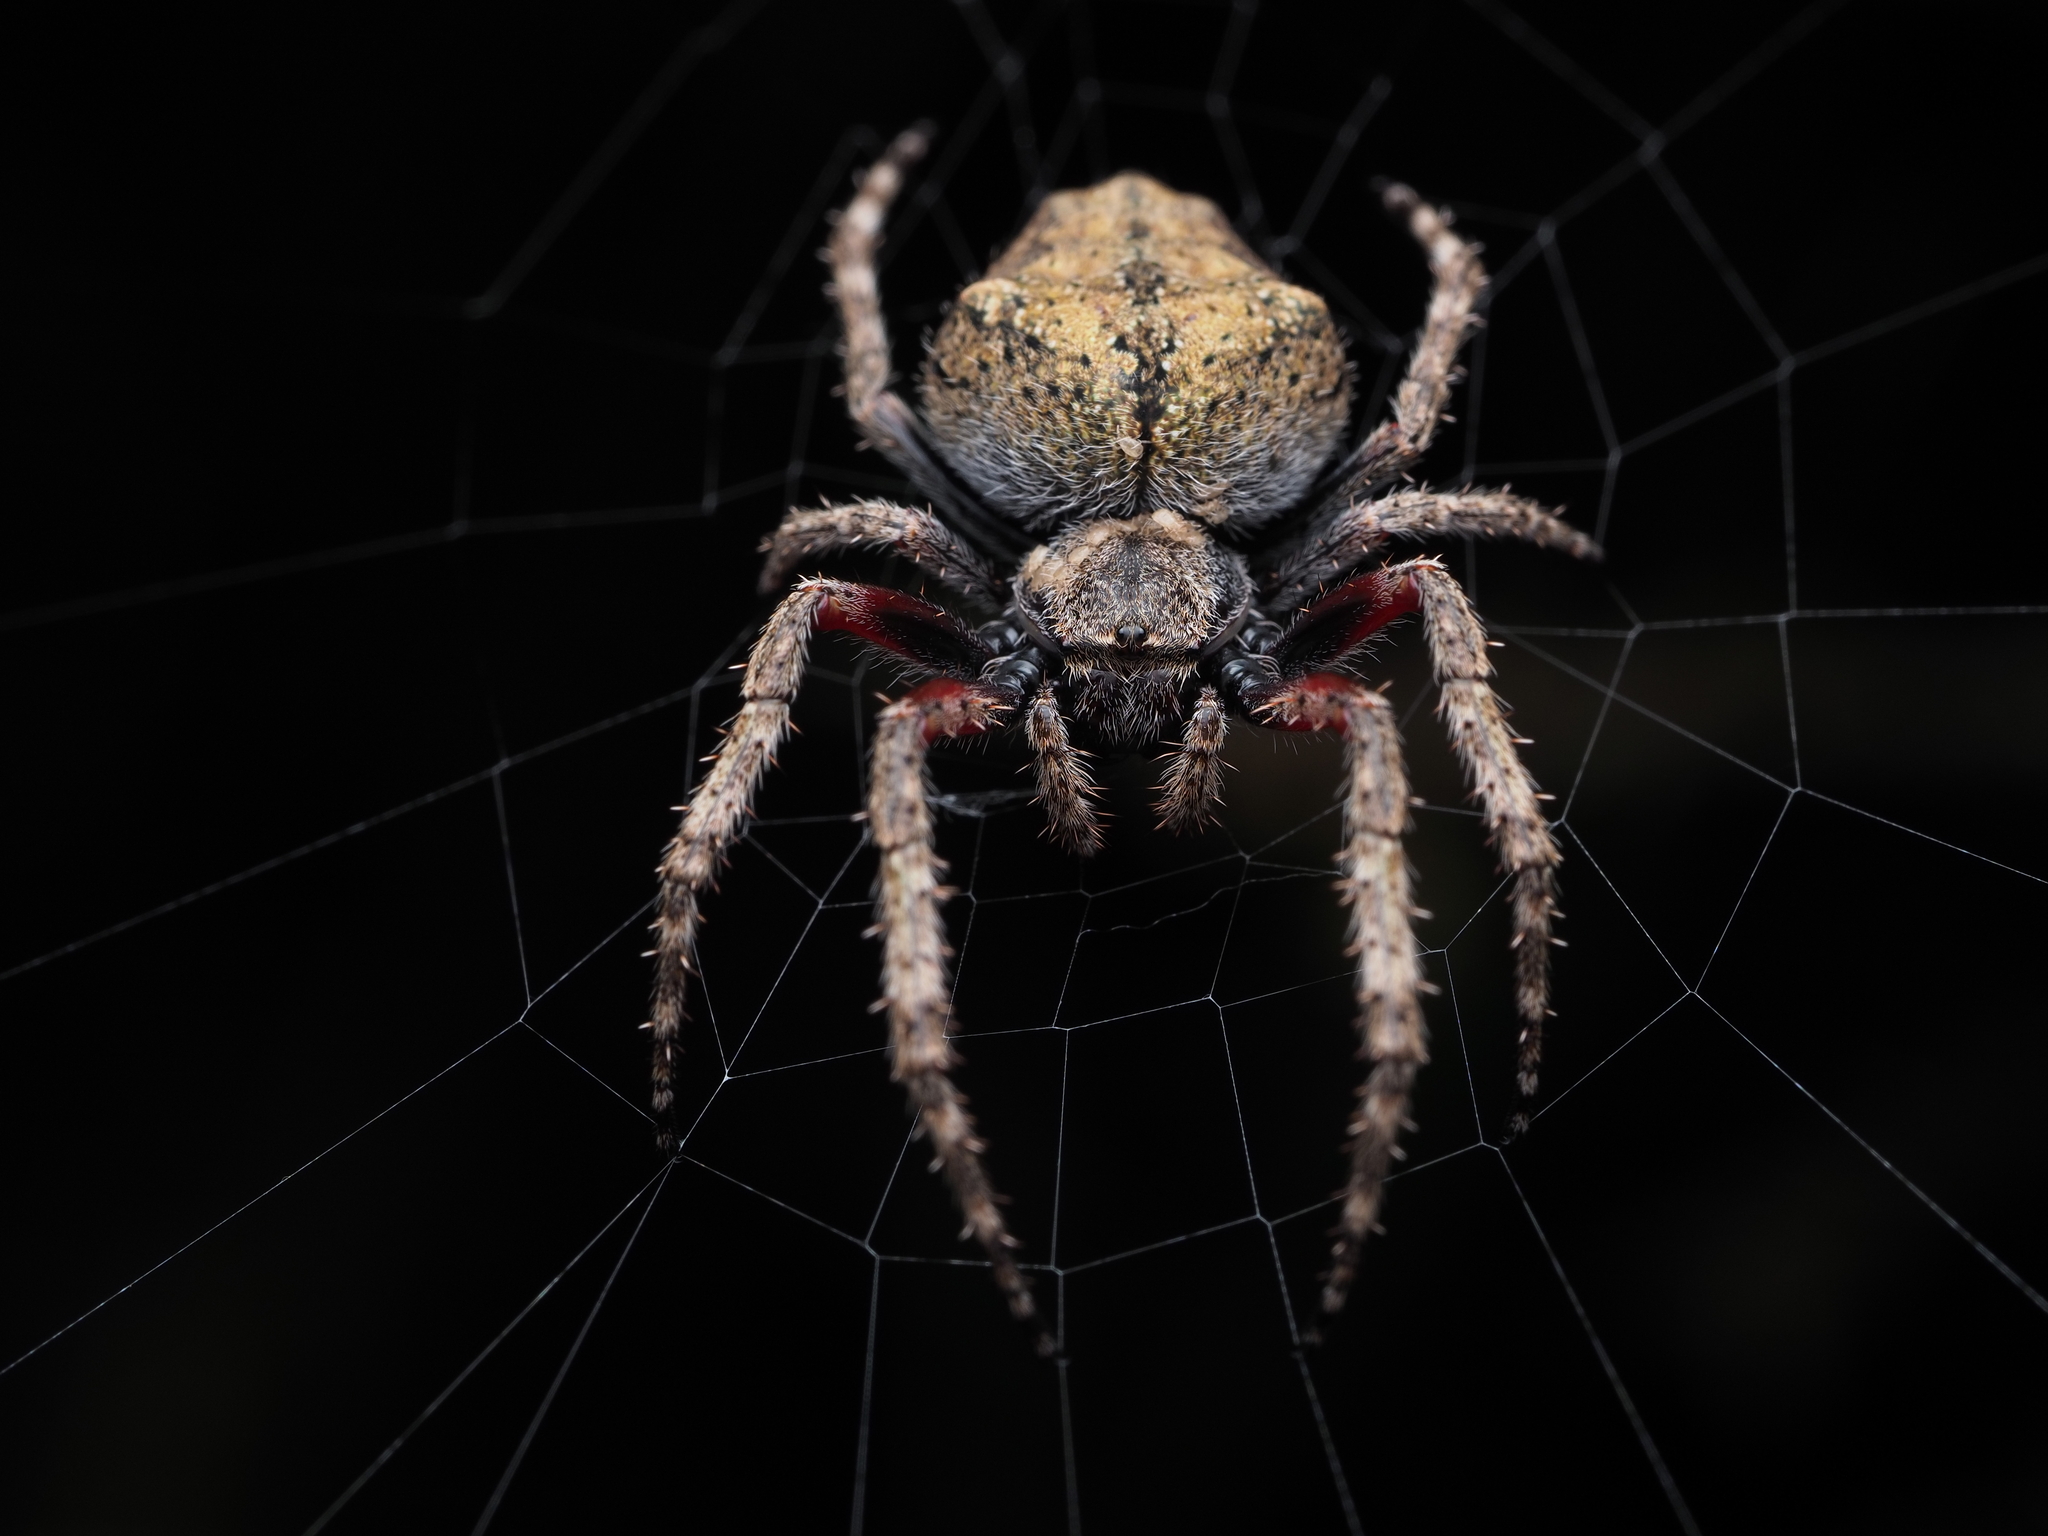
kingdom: Animalia
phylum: Arthropoda
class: Arachnida
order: Araneae
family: Araneidae
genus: Eriophora
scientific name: Eriophora pustulosa
